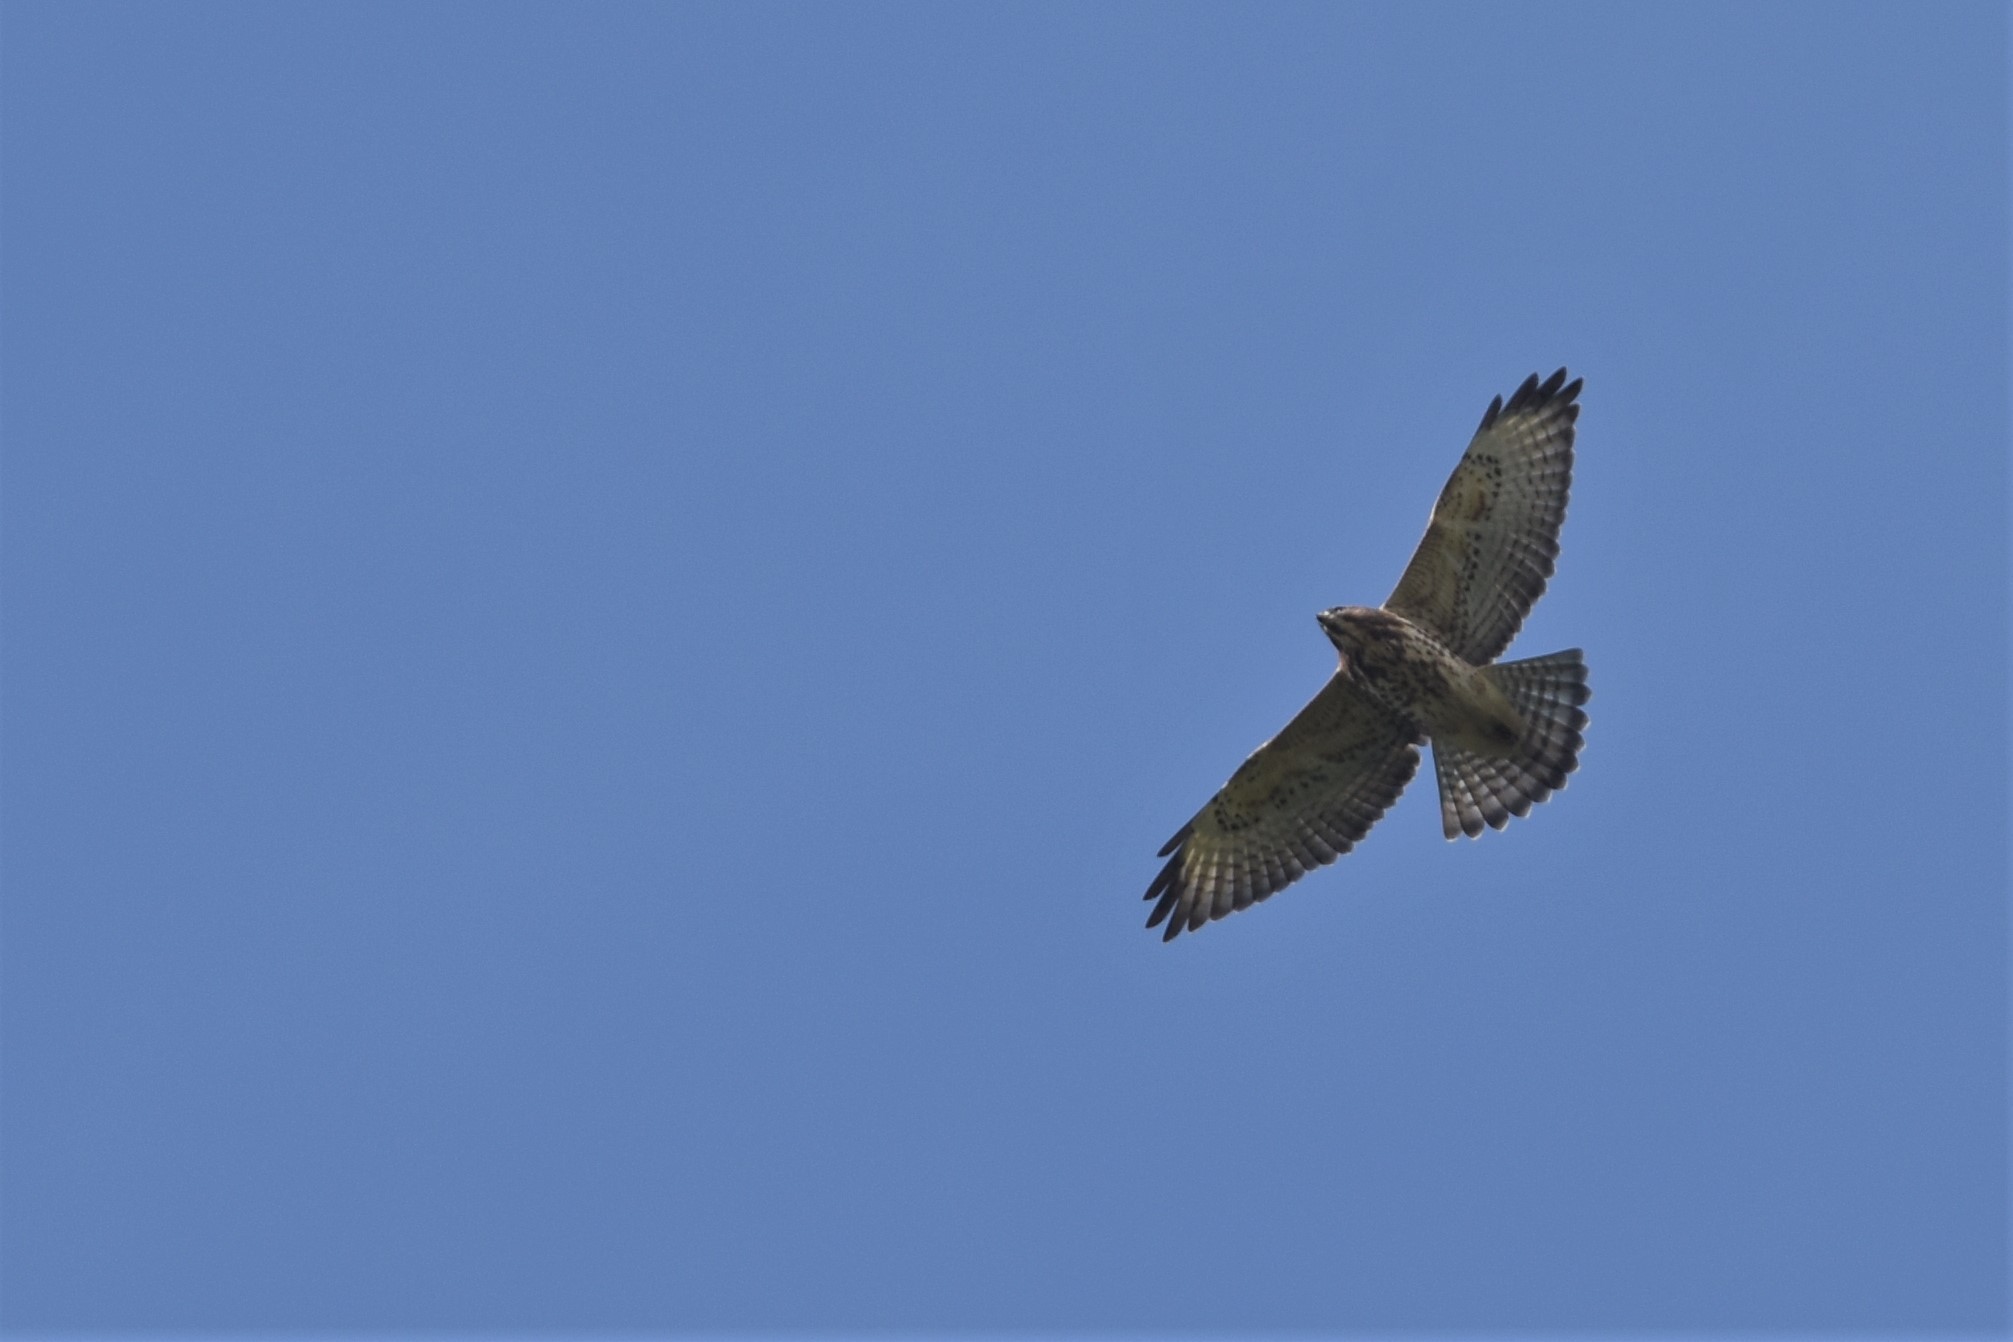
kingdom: Animalia
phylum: Chordata
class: Aves
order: Accipitriformes
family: Accipitridae
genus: Buteo
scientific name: Buteo platypterus
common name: Broad-winged hawk
